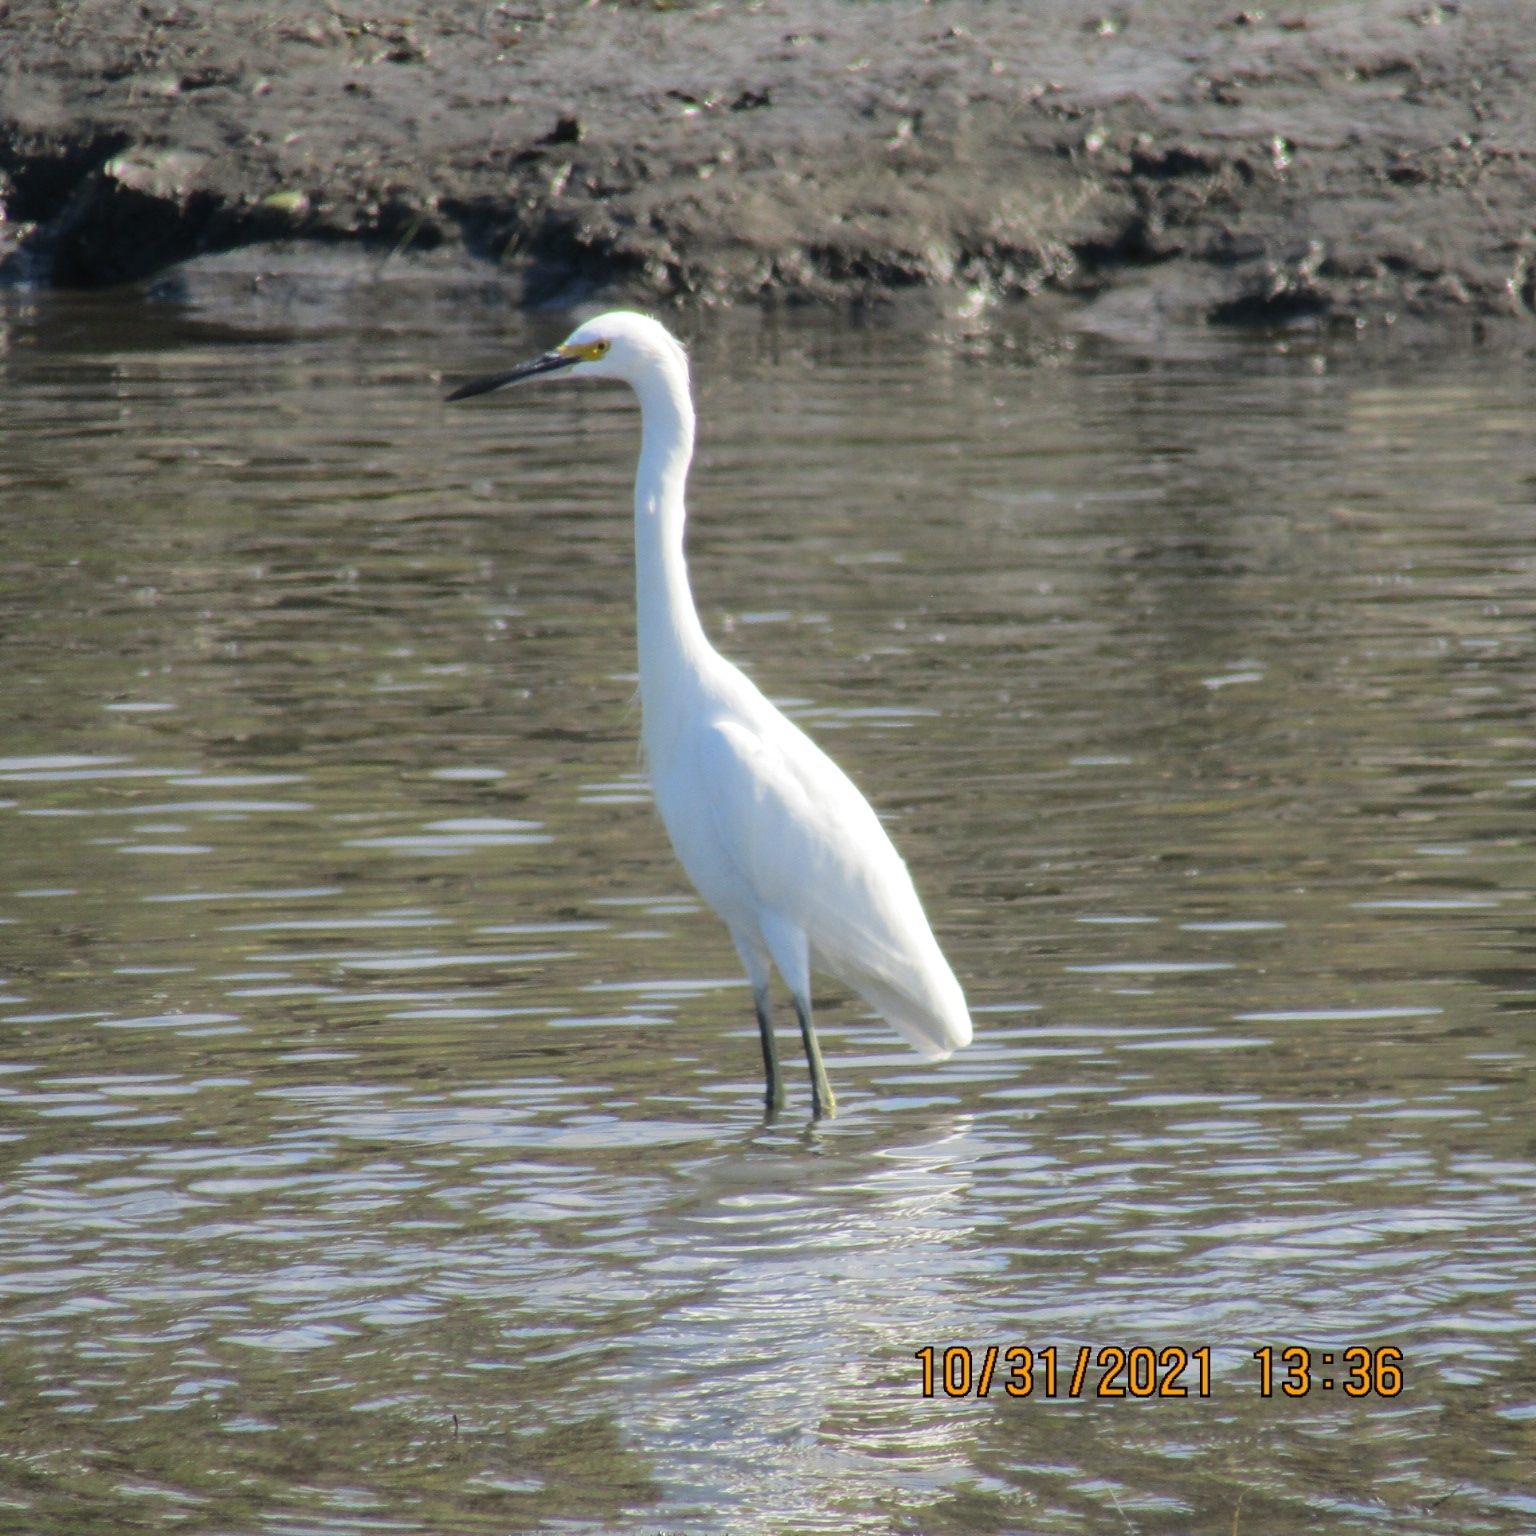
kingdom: Animalia
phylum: Chordata
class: Aves
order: Pelecaniformes
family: Ardeidae
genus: Egretta
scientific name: Egretta thula
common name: Snowy egret
